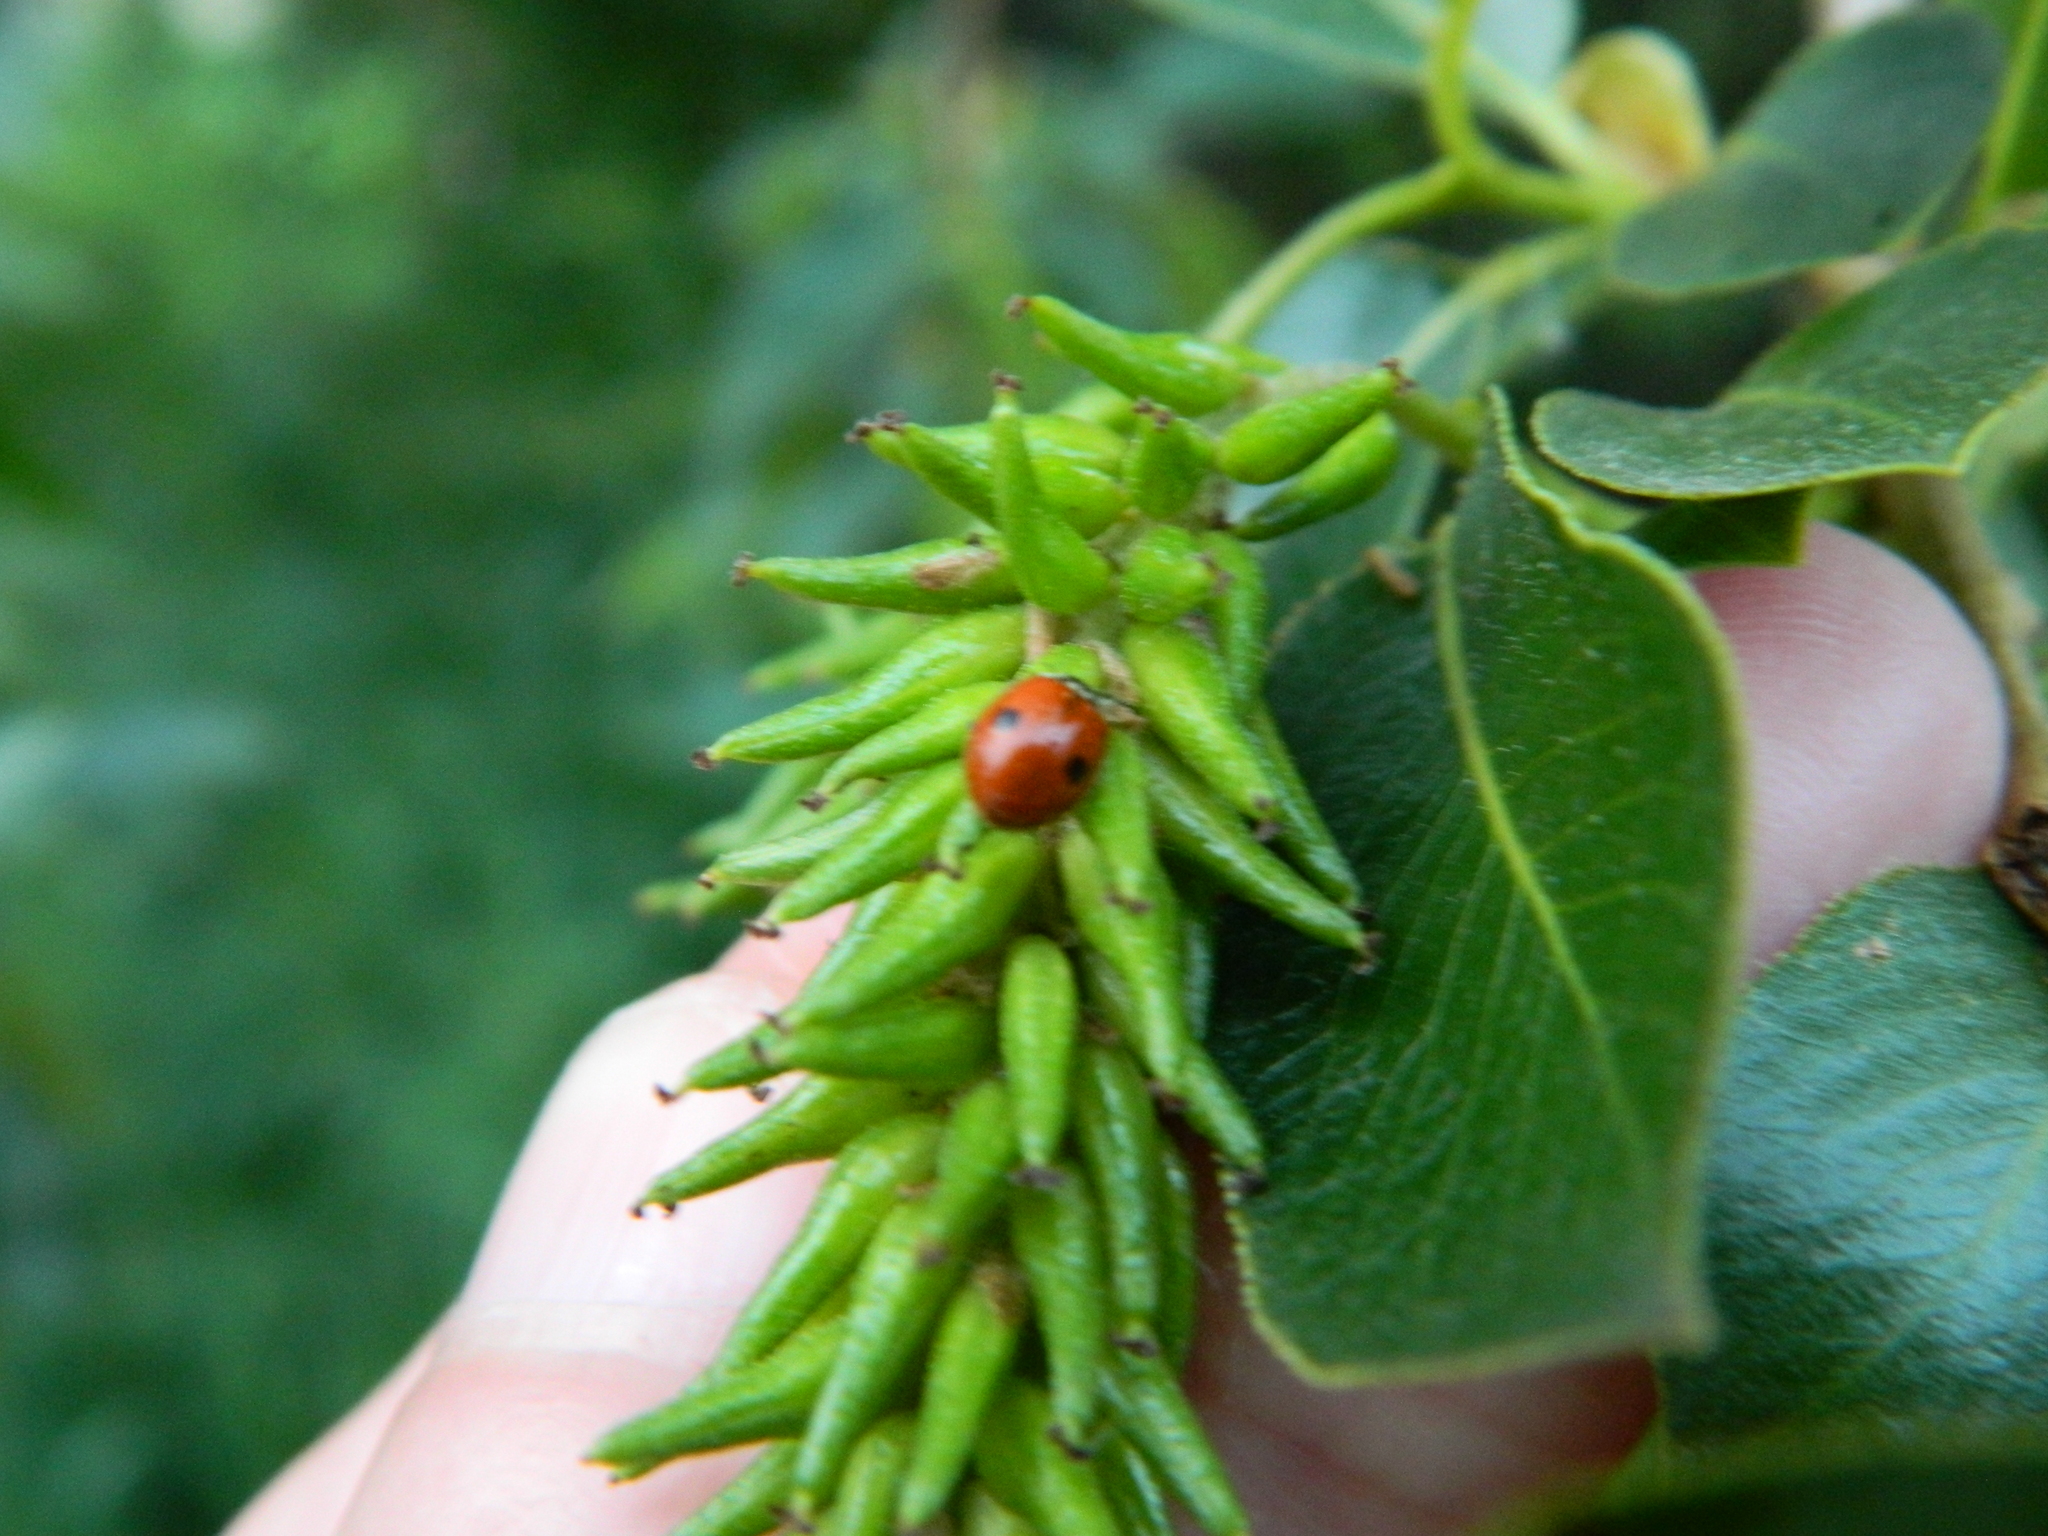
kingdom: Animalia
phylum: Arthropoda
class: Insecta
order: Coleoptera
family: Coccinellidae
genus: Adalia
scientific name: Adalia bipunctata
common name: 2-spot ladybird
